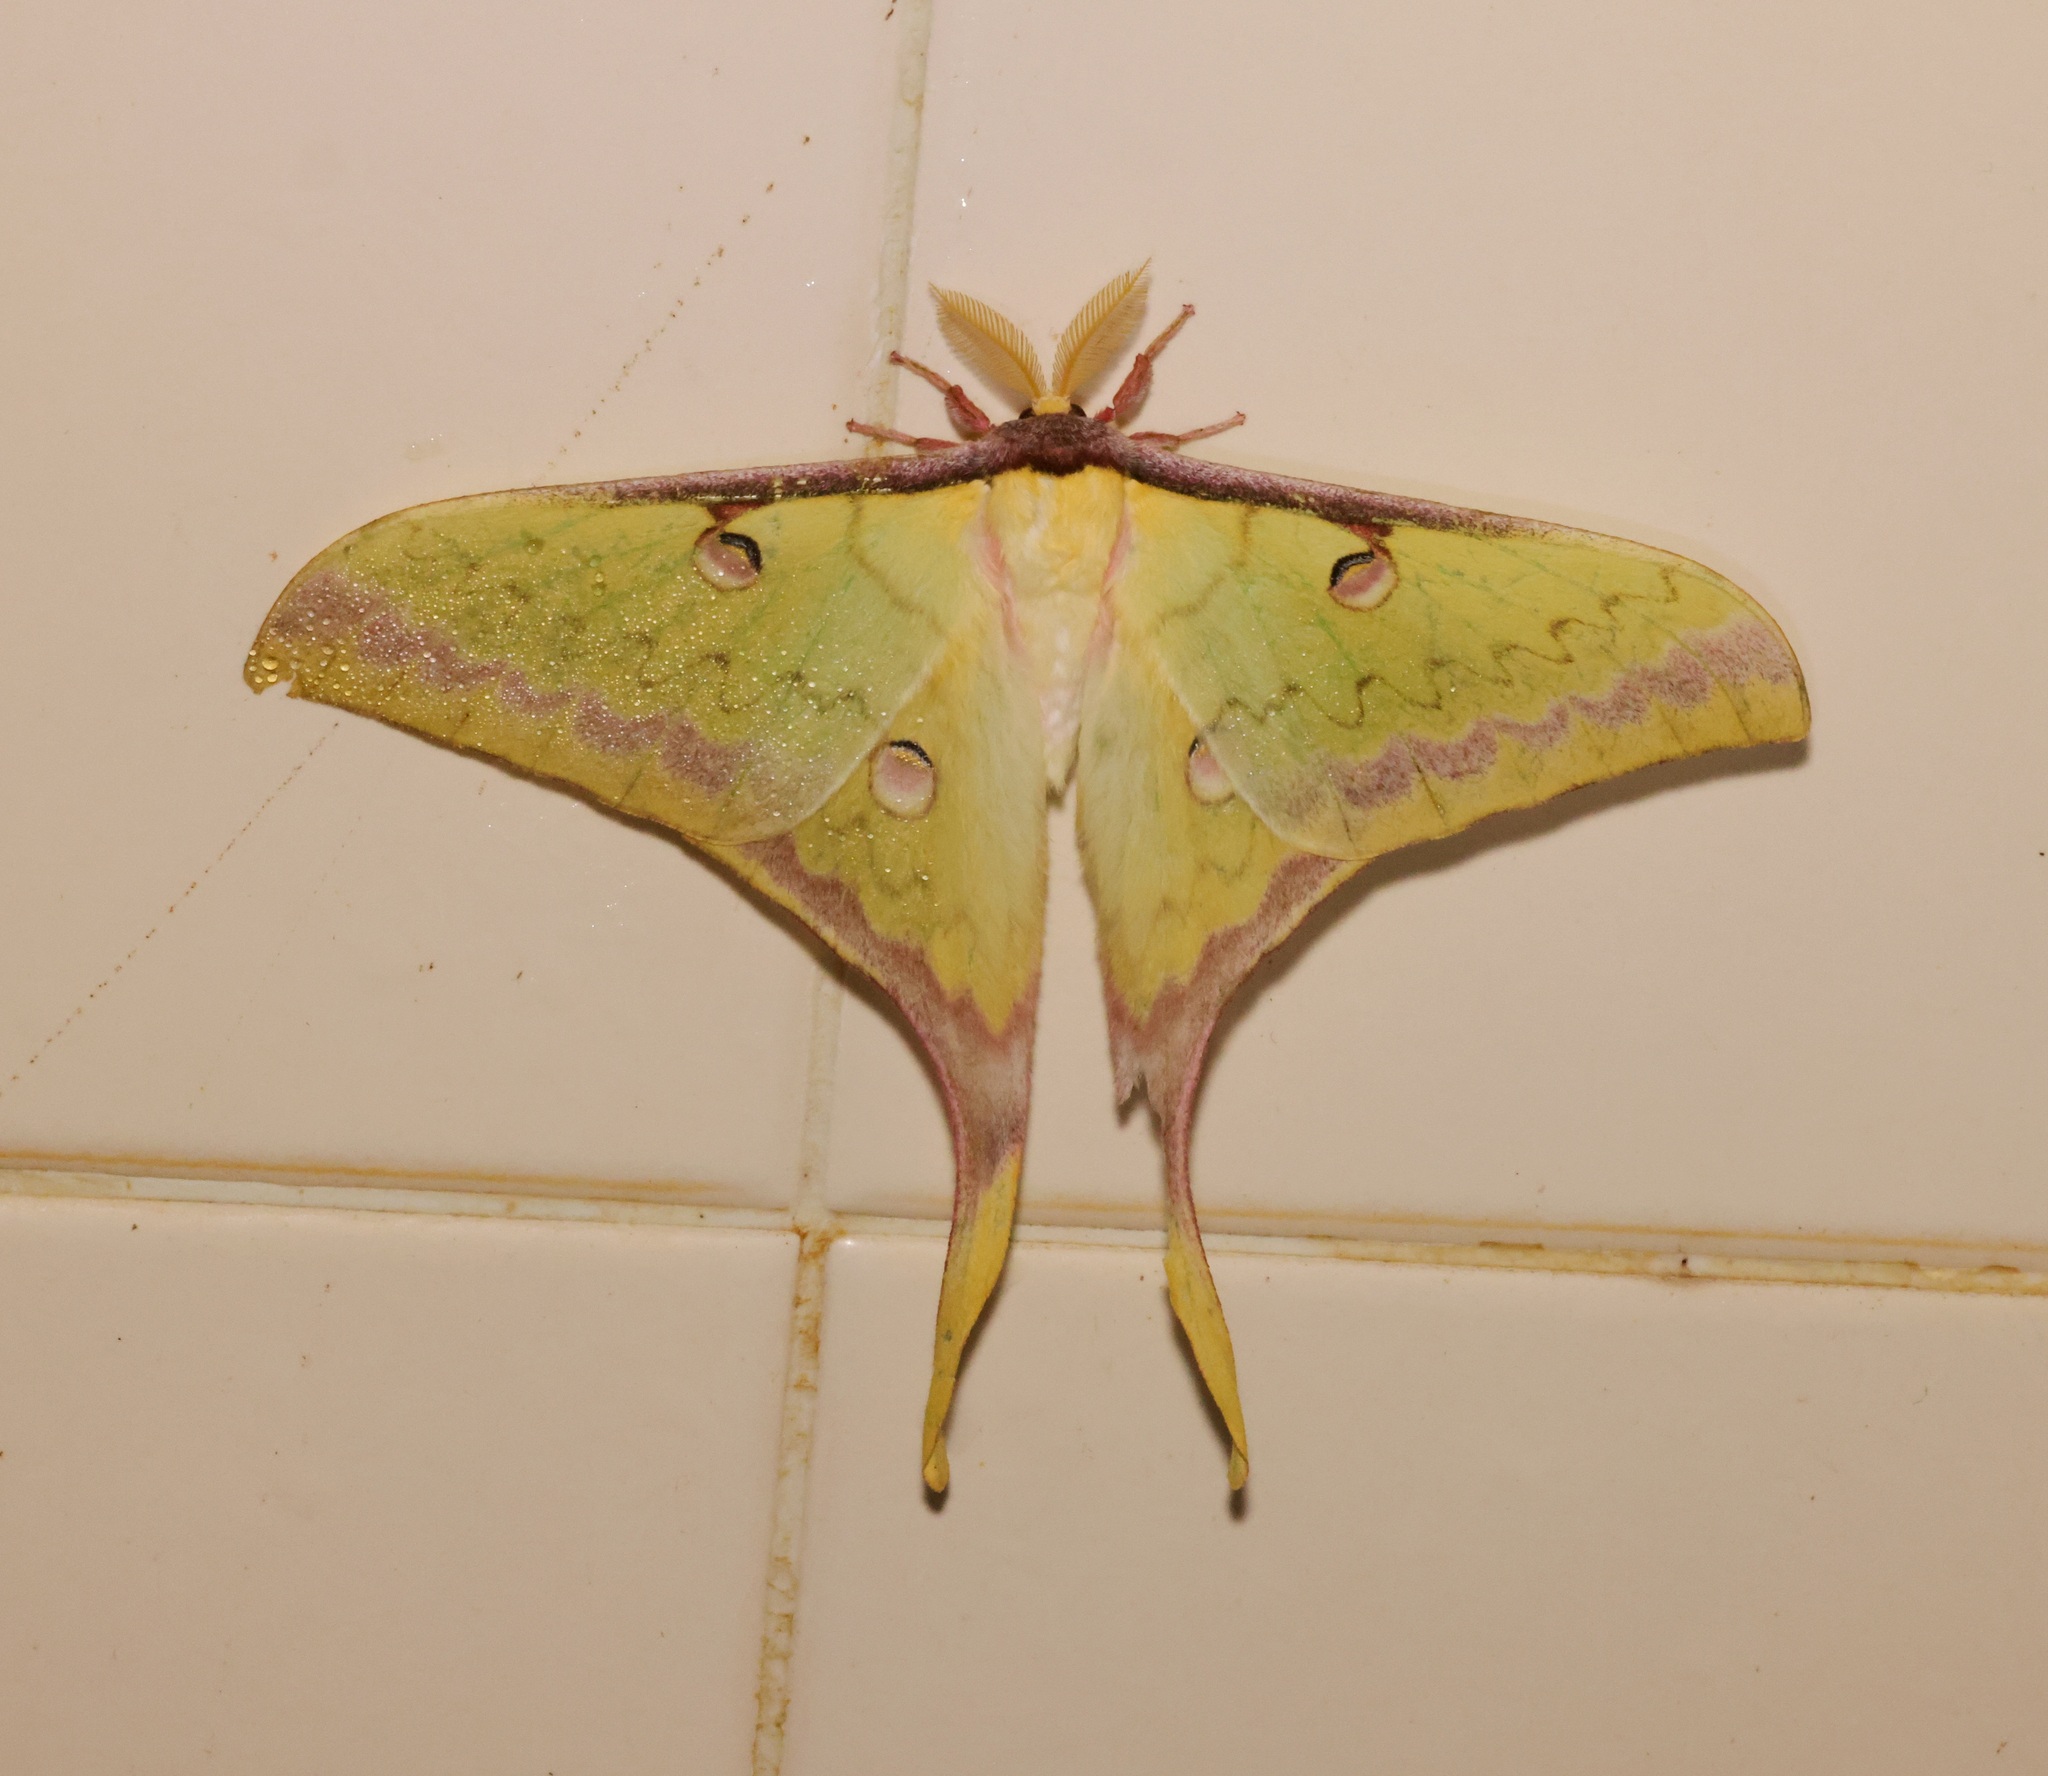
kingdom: Animalia
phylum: Arthropoda
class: Insecta
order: Lepidoptera
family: Saturniidae
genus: Actias
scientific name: Actias sinensis
